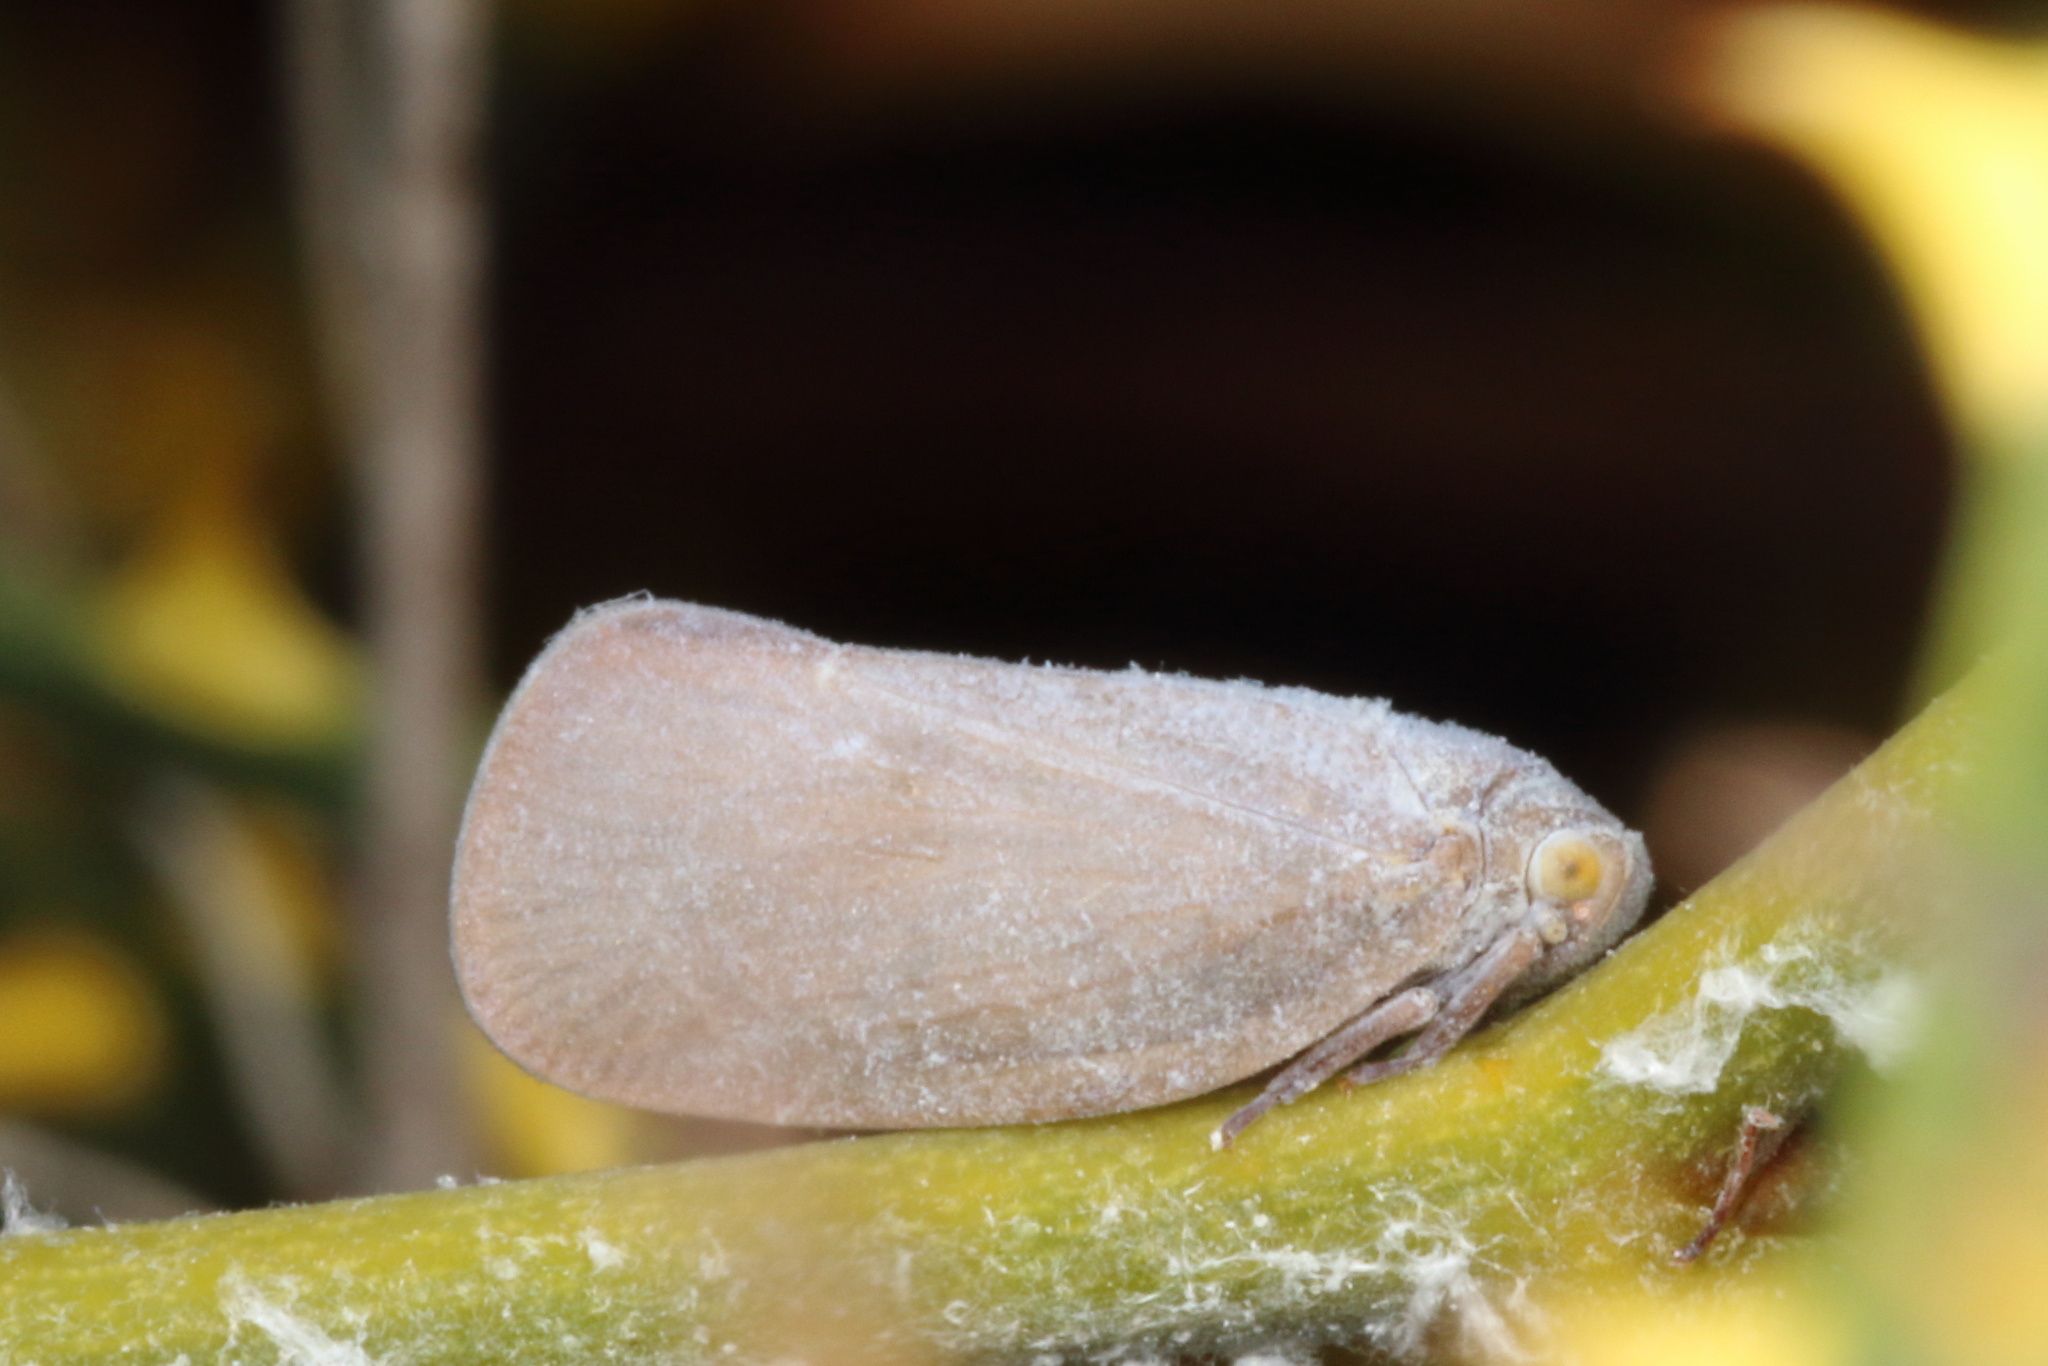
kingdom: Animalia
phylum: Arthropoda
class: Insecta
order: Hemiptera
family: Flatidae
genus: Anzora
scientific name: Anzora unicolor
